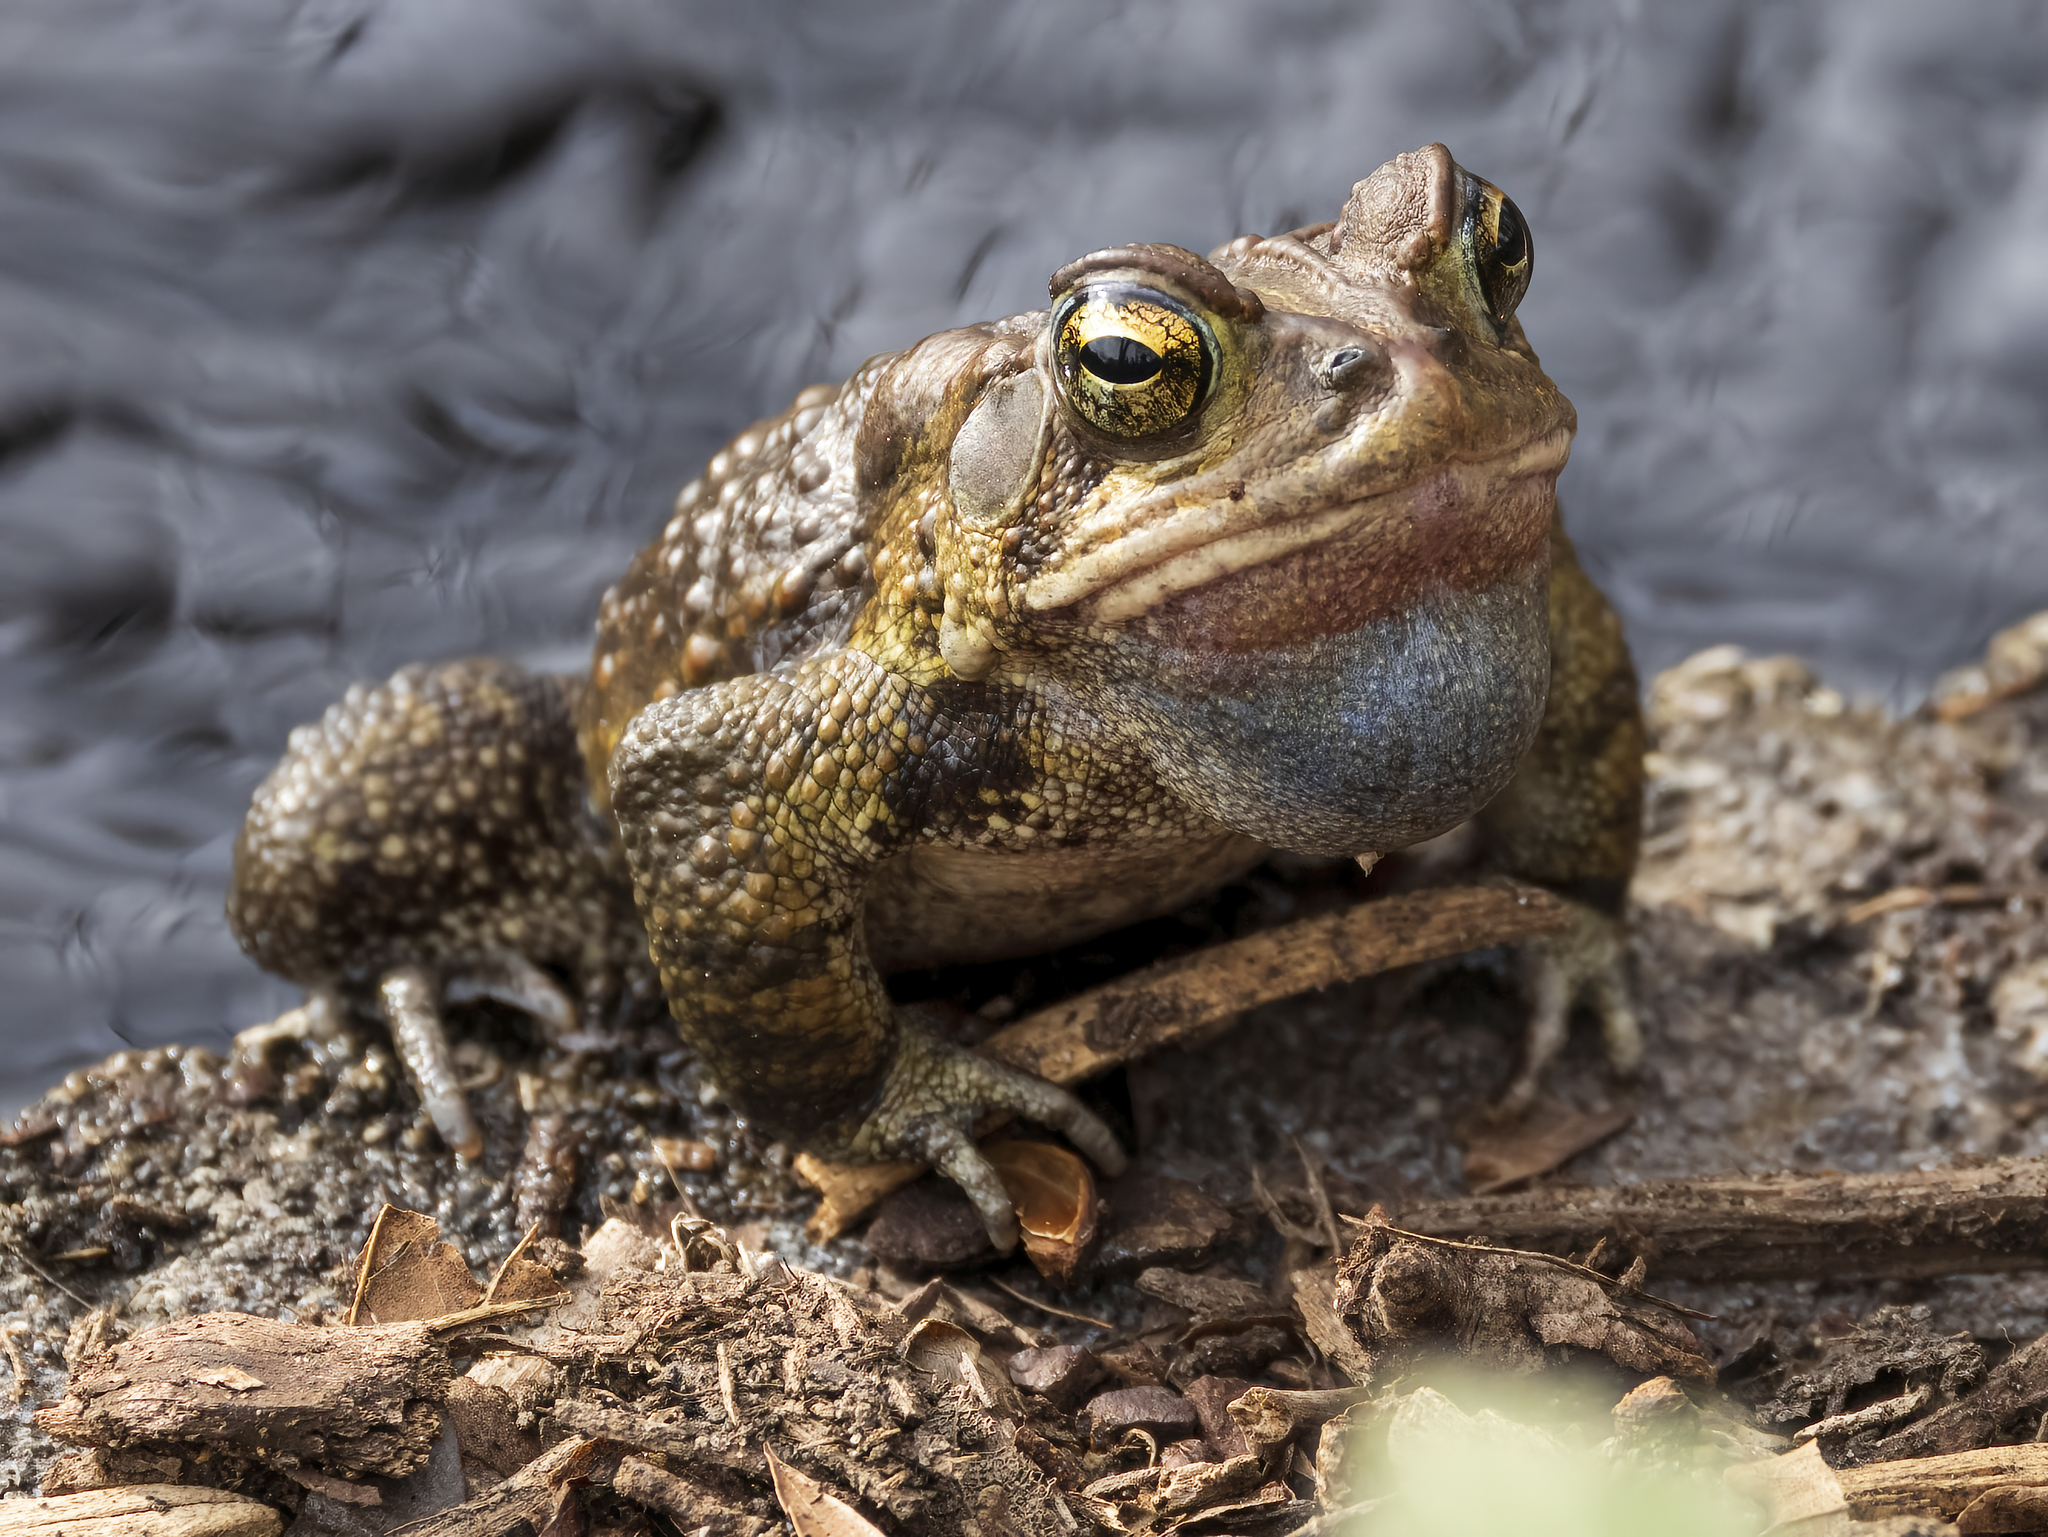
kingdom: Animalia
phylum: Chordata
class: Amphibia
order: Anura
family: Bufonidae
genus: Anaxyrus
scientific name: Anaxyrus americanus
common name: American toad
